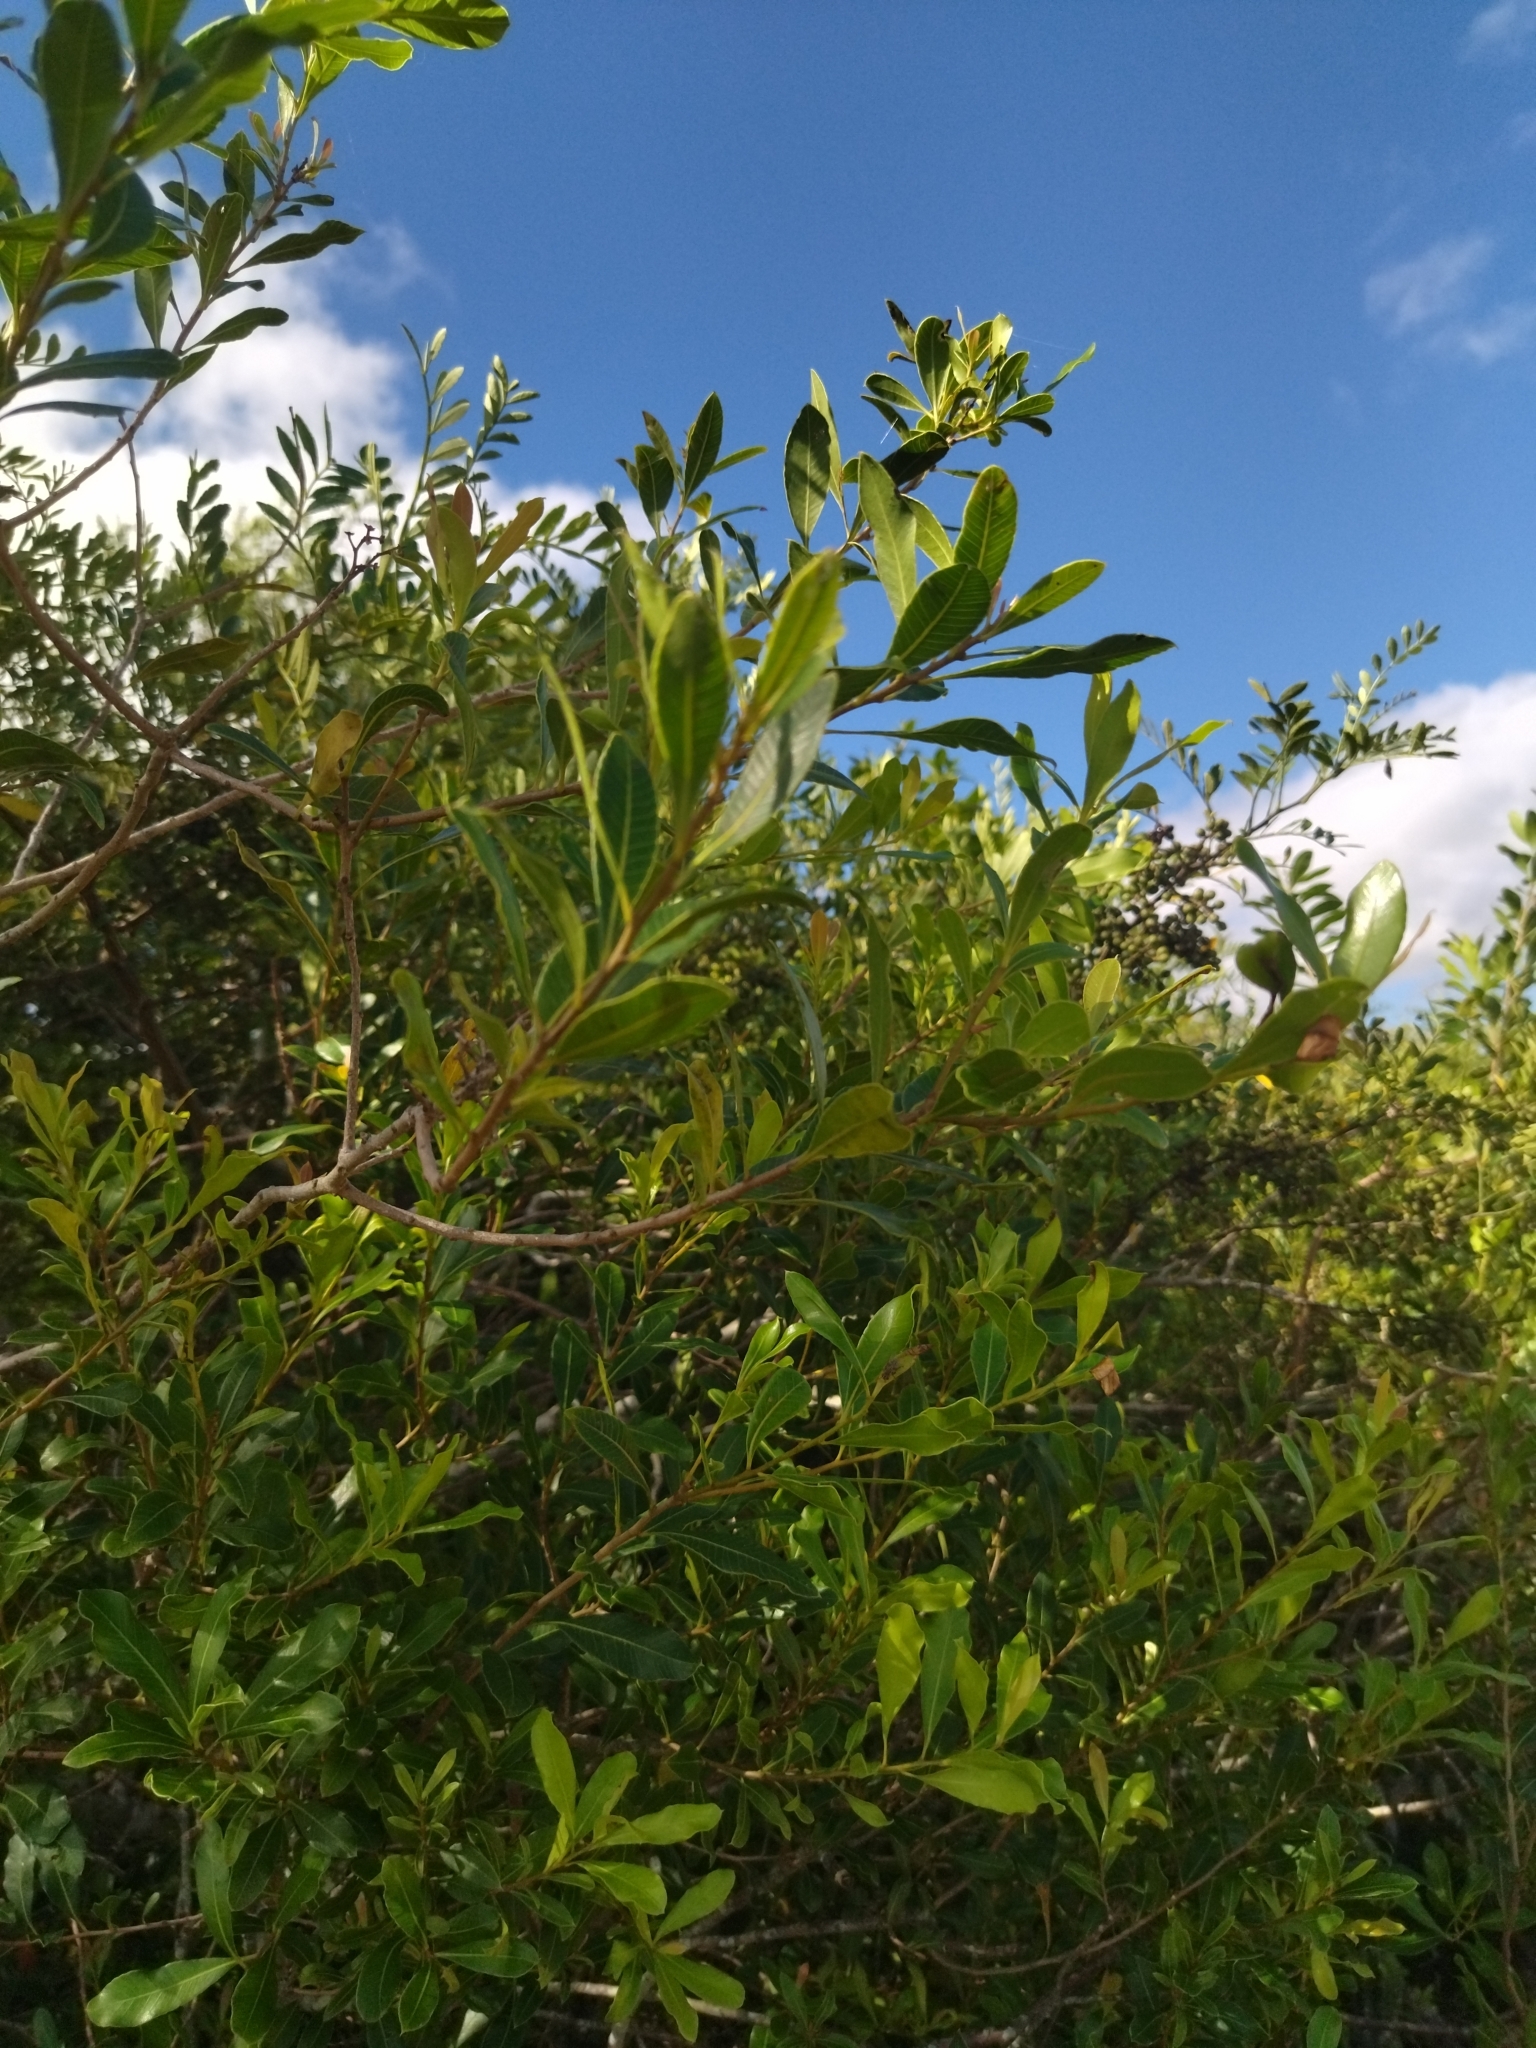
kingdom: Plantae
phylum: Tracheophyta
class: Magnoliopsida
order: Sapindales
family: Anacardiaceae
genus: Lithraea
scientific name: Lithraea brasiliensis
